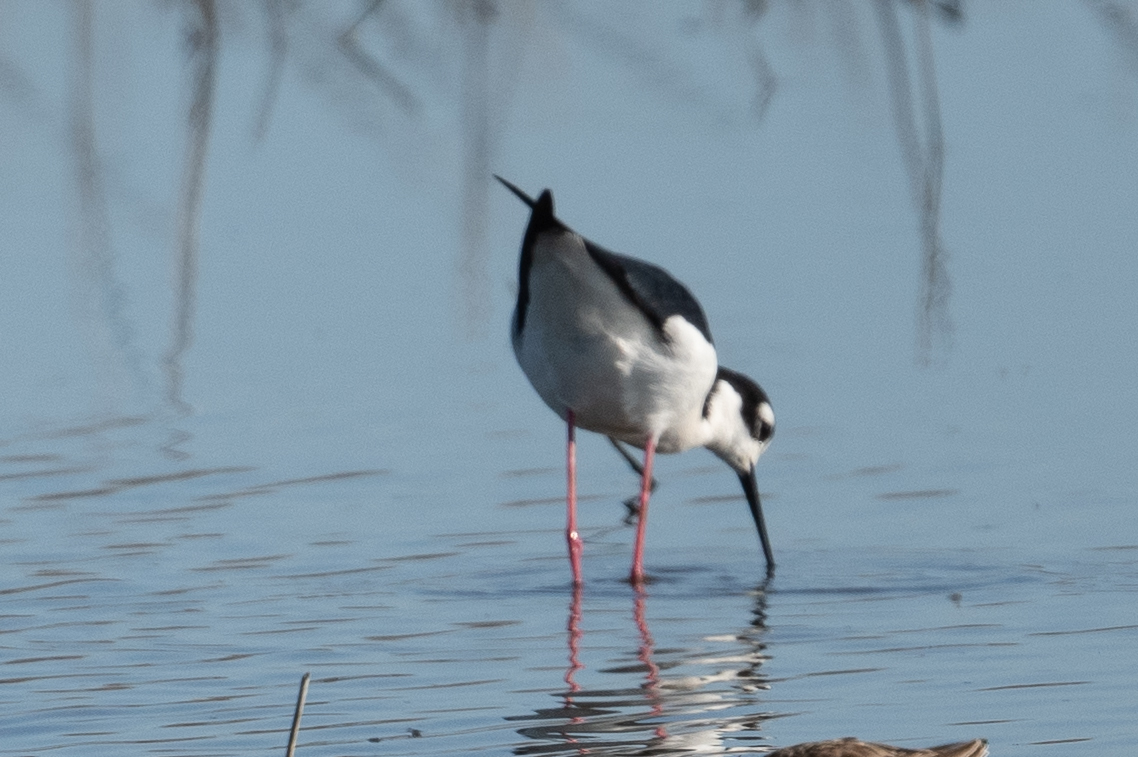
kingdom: Animalia
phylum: Chordata
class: Aves
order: Charadriiformes
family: Recurvirostridae
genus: Himantopus
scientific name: Himantopus mexicanus
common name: Black-necked stilt
